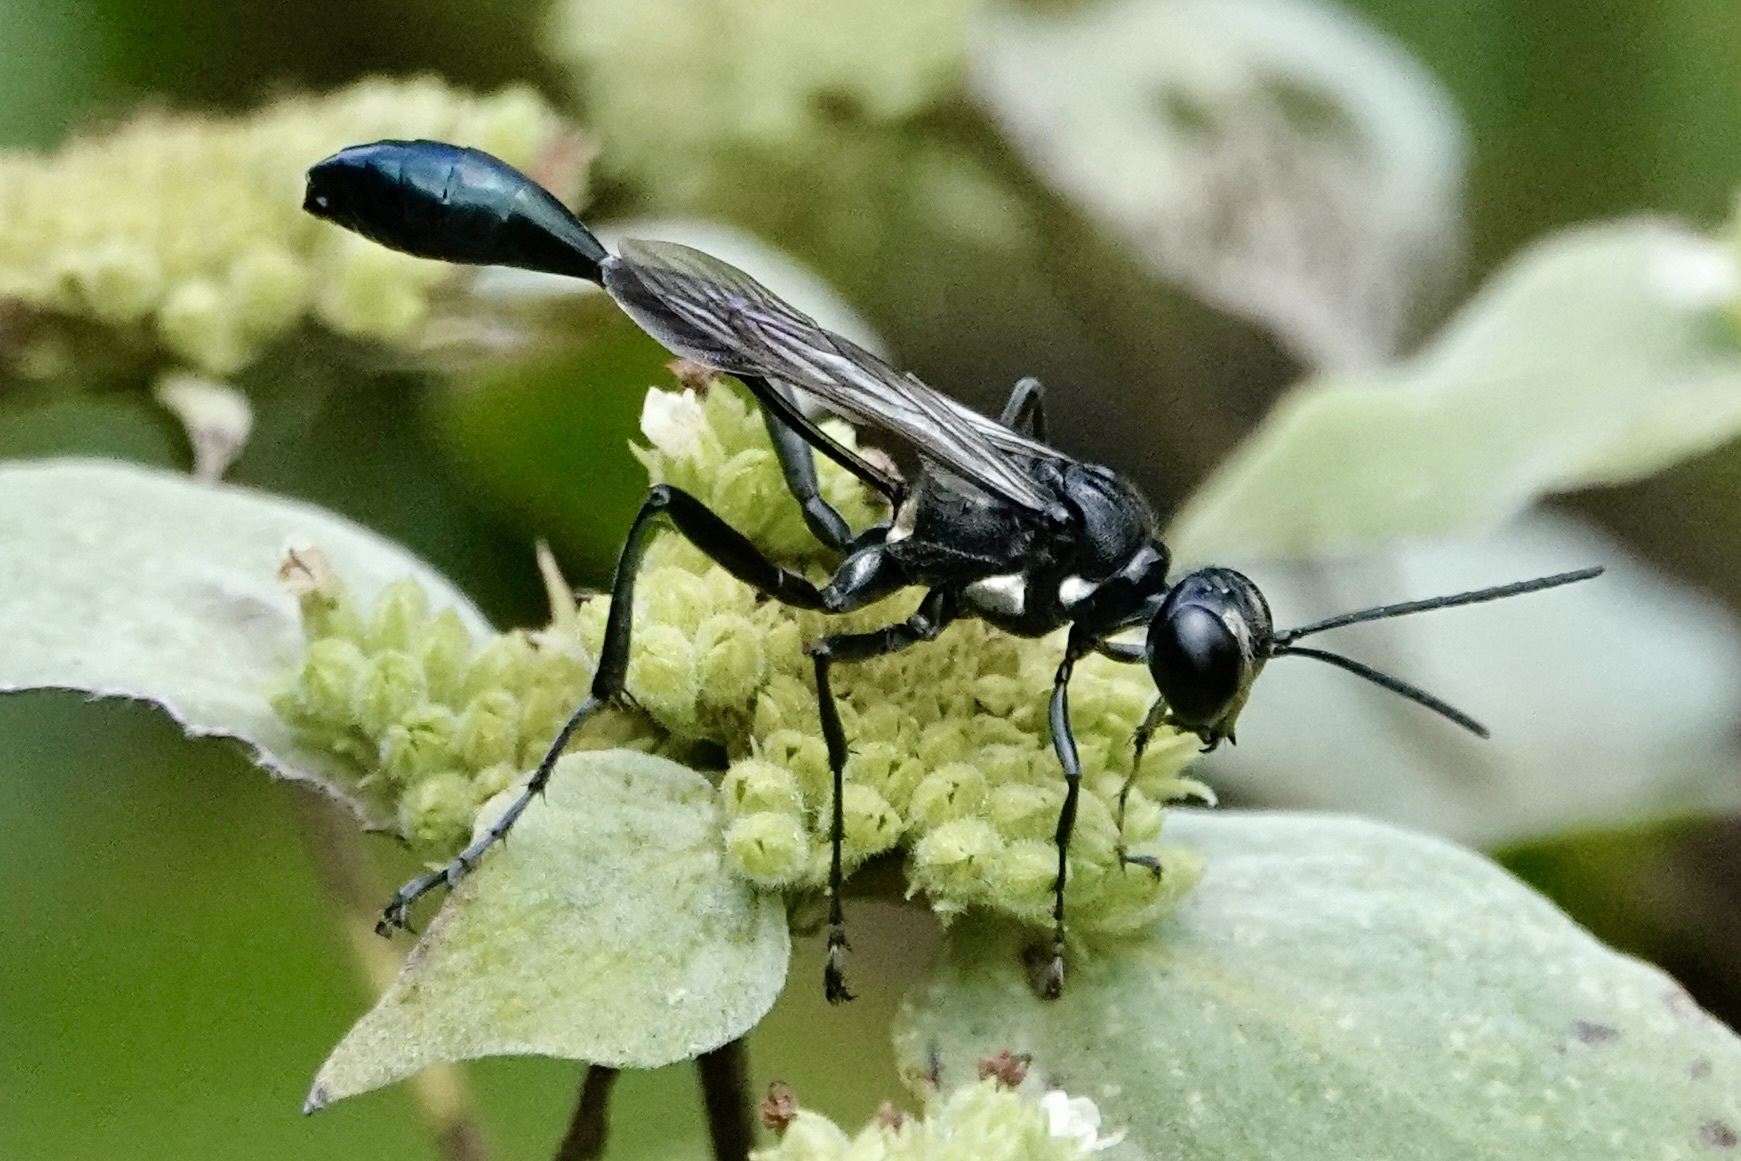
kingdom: Animalia
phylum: Arthropoda
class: Insecta
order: Hymenoptera
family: Sphecidae
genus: Eremnophila
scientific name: Eremnophila aureonotata
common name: Gold-marked thread-waisted wasp
